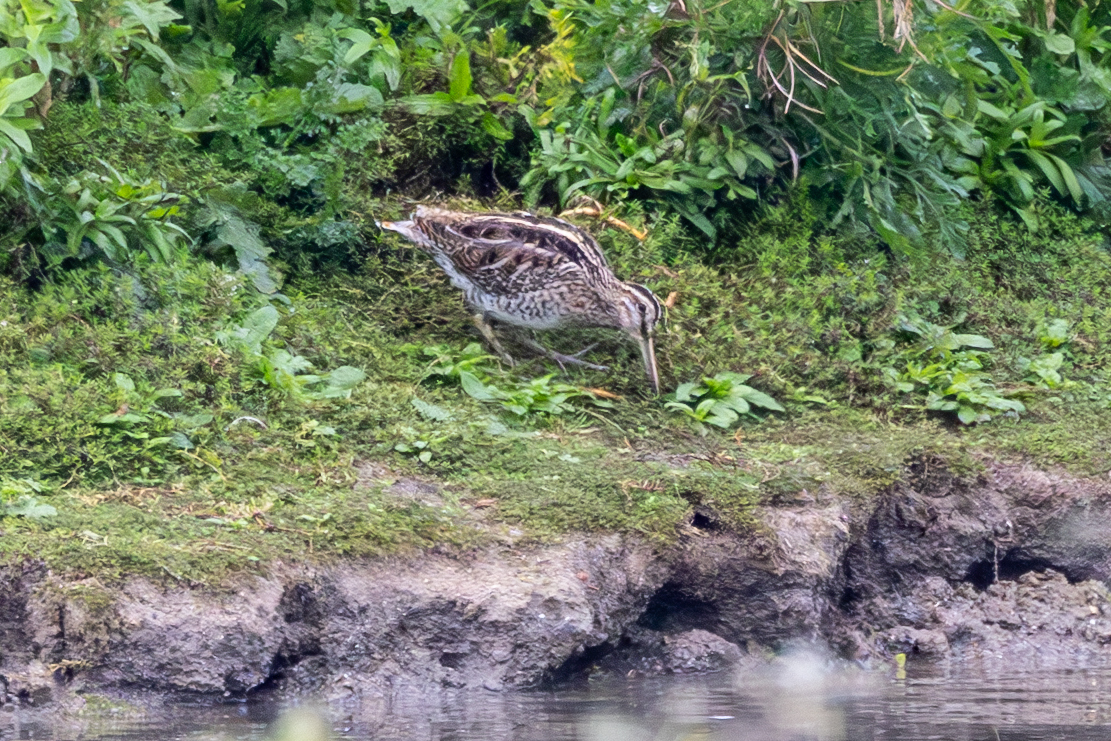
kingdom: Animalia
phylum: Chordata
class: Aves
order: Charadriiformes
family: Scolopacidae
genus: Gallinago
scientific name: Gallinago gallinago
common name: Common snipe
